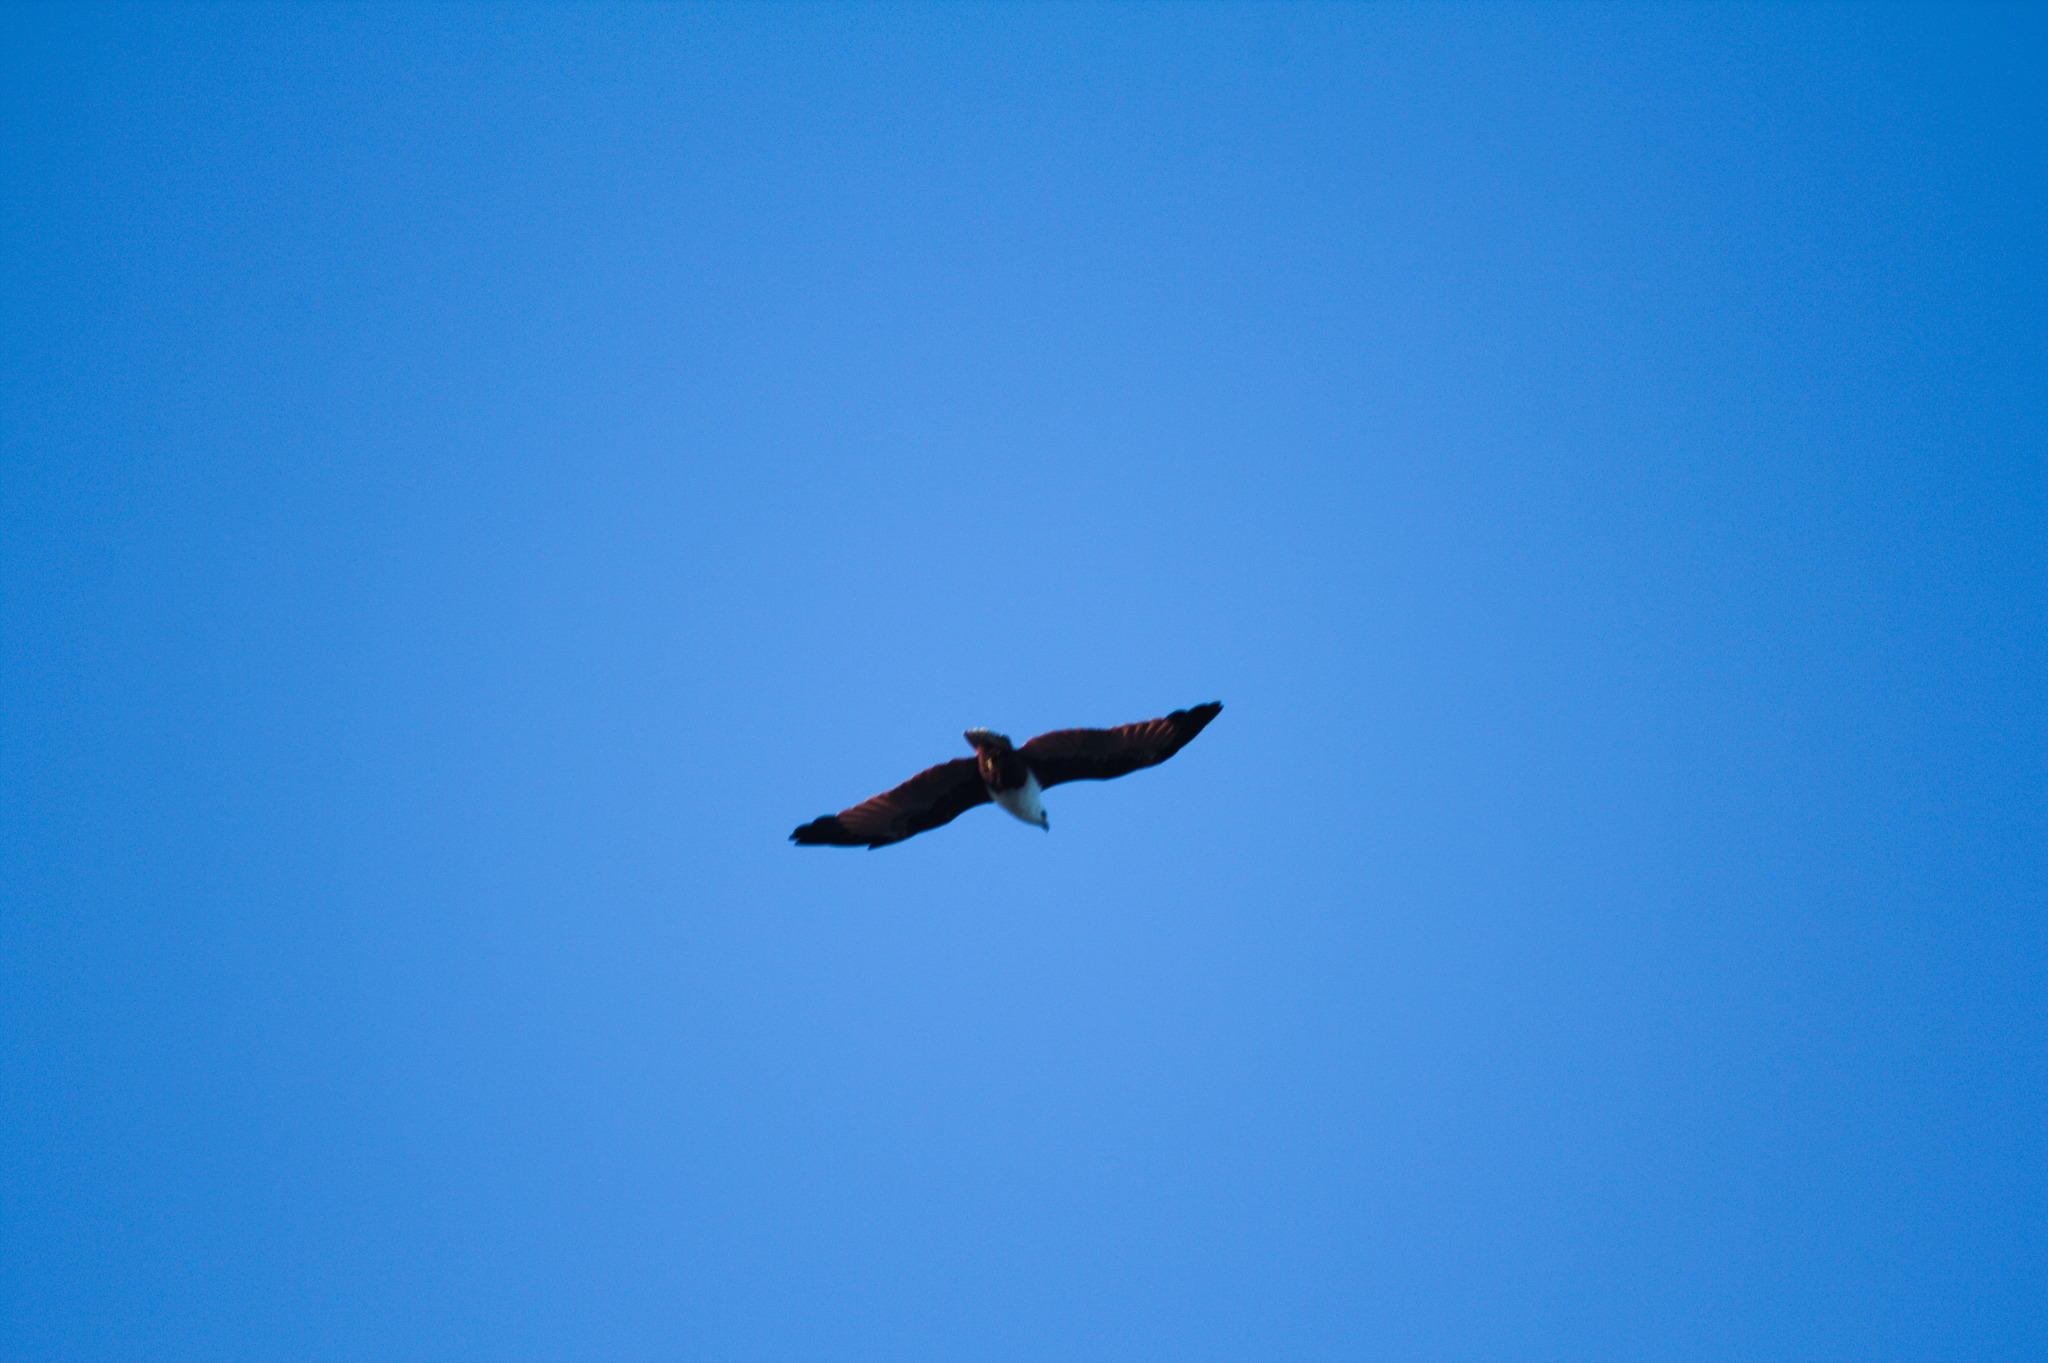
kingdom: Animalia
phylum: Chordata
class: Aves
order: Accipitriformes
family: Accipitridae
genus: Haliastur
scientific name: Haliastur indus
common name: Brahminy kite
